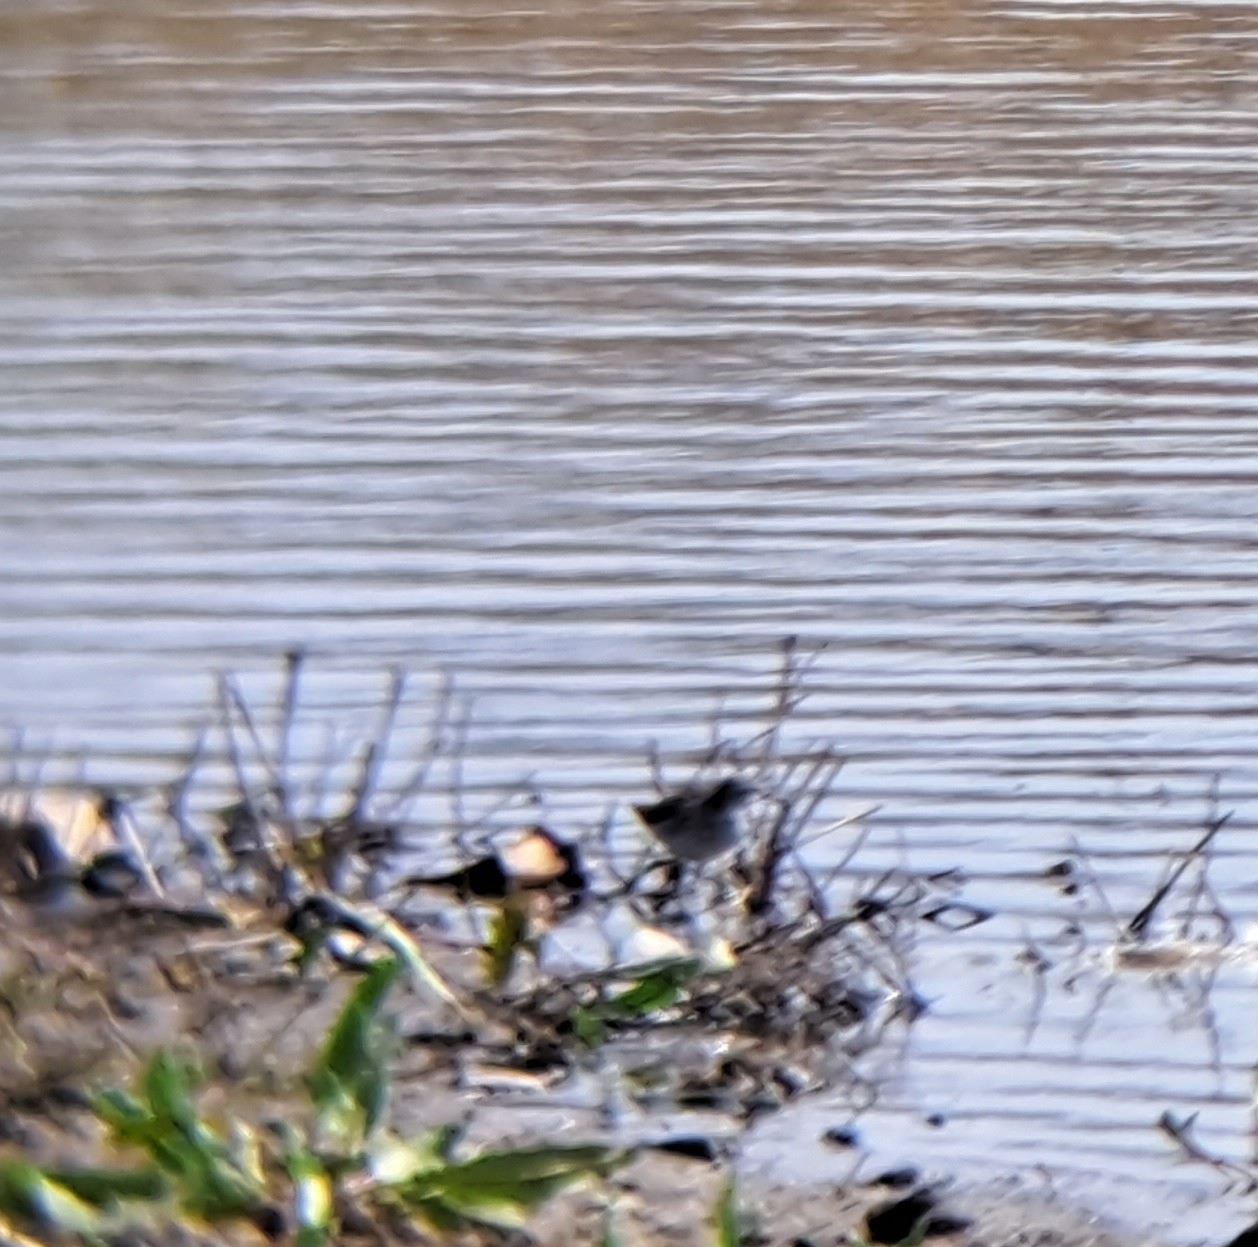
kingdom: Animalia
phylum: Chordata
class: Aves
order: Charadriiformes
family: Scolopacidae
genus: Tringa
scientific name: Tringa glareola
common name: Wood sandpiper
